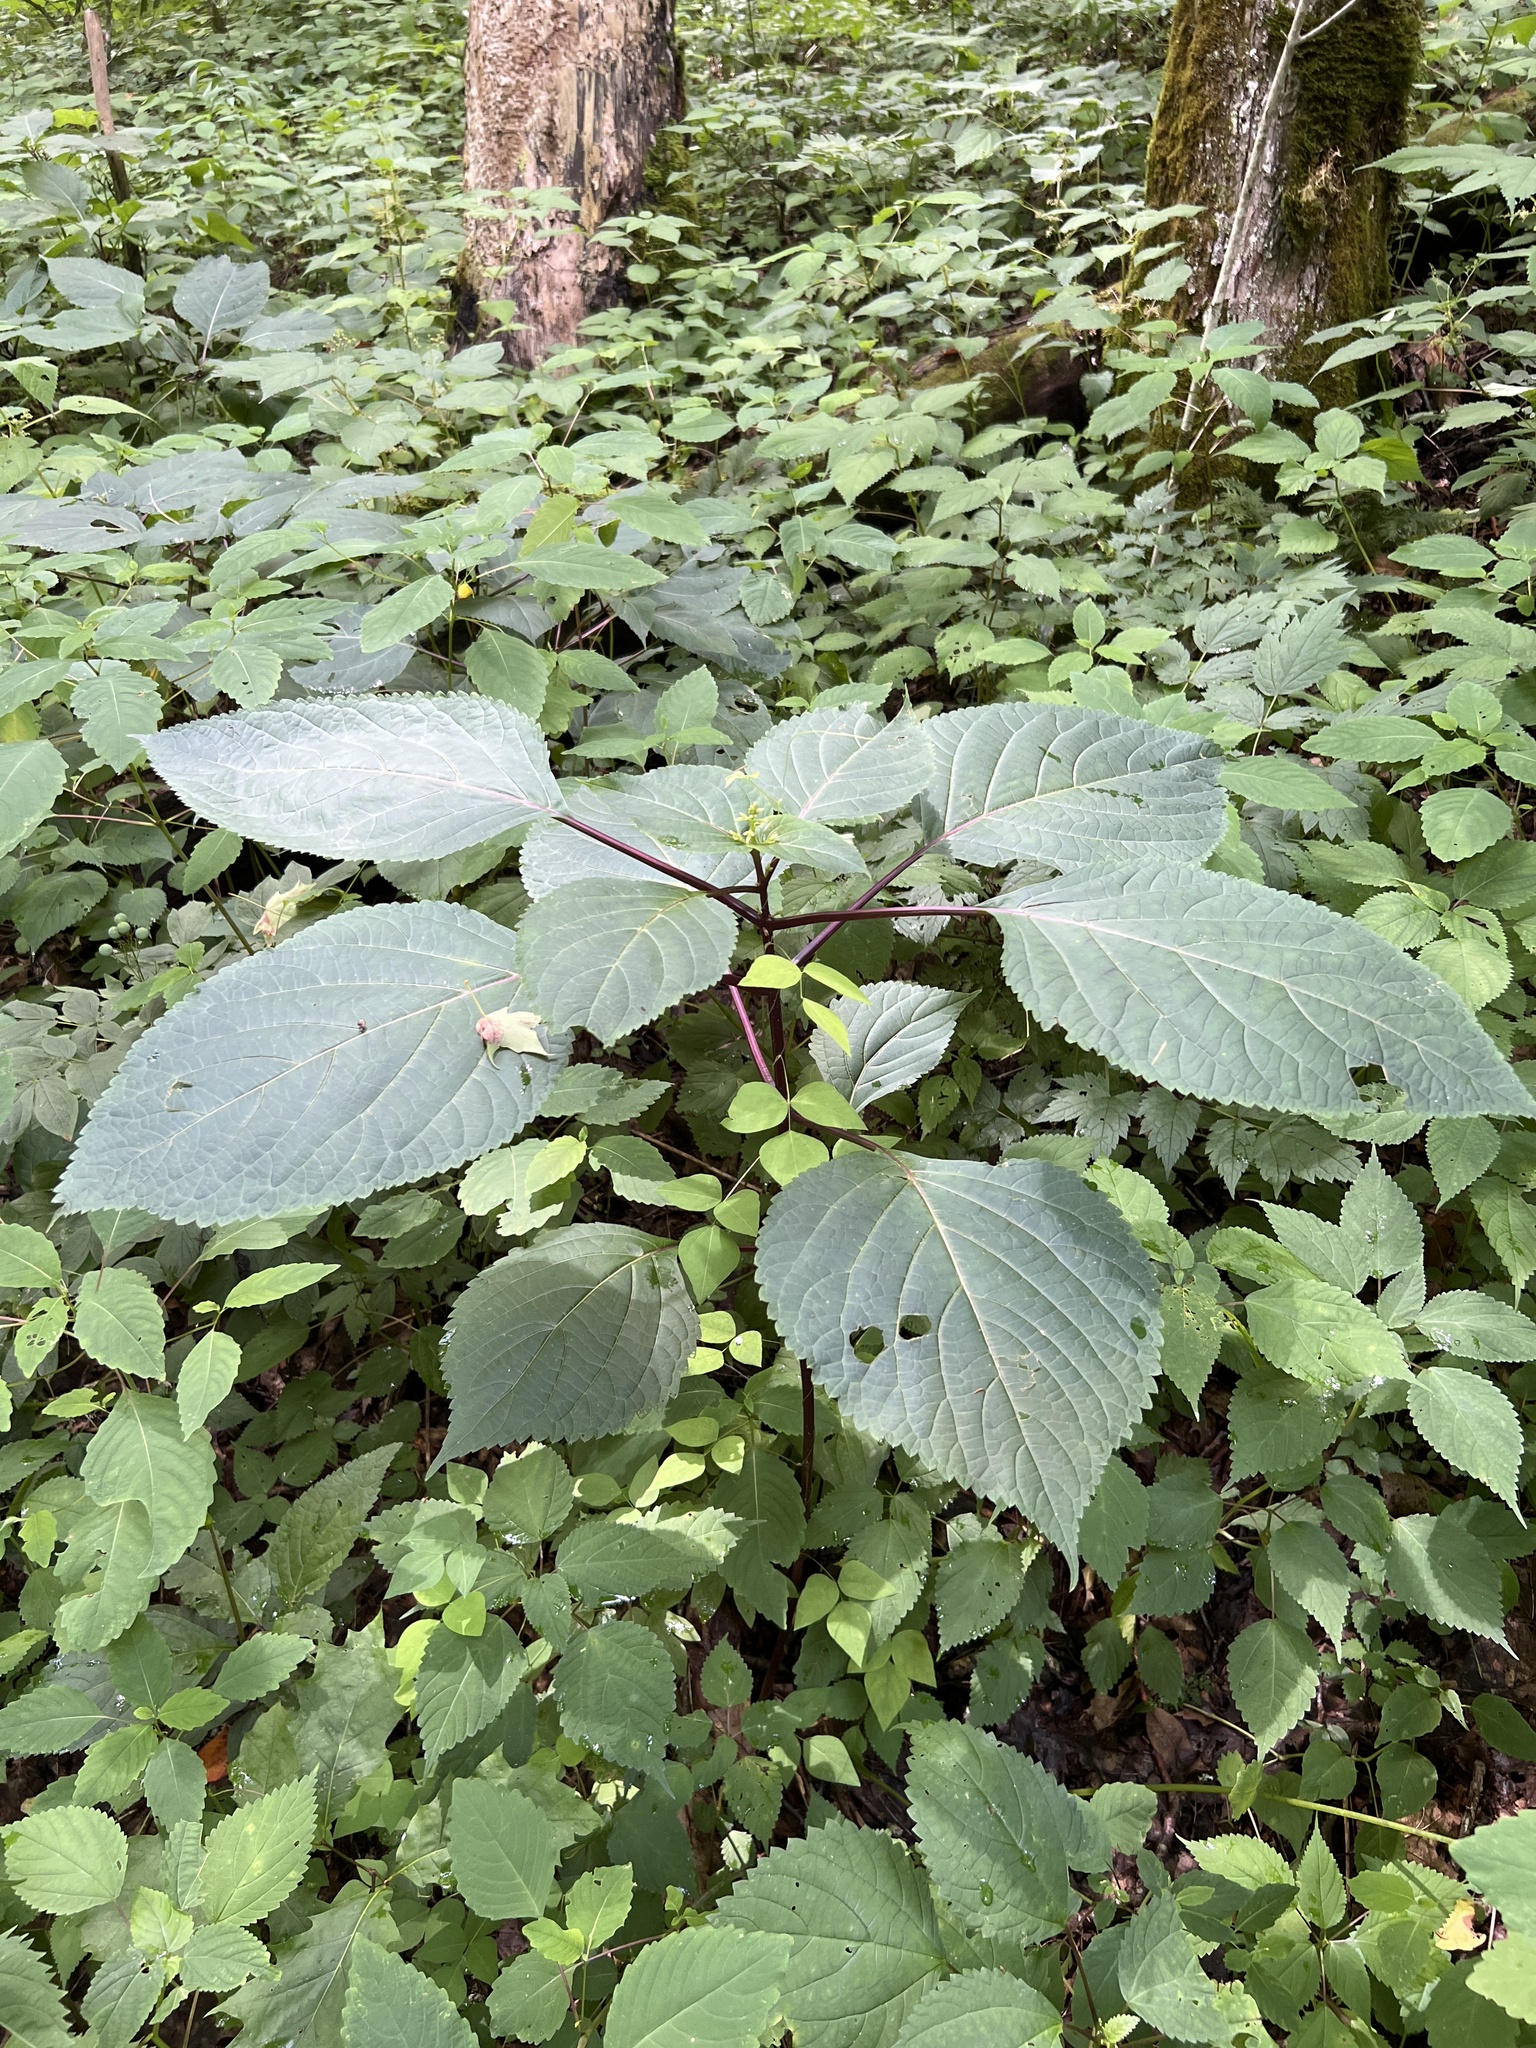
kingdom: Plantae
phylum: Tracheophyta
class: Magnoliopsida
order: Lamiales
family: Lamiaceae
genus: Collinsonia
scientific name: Collinsonia canadensis
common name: Northern horsebalm
